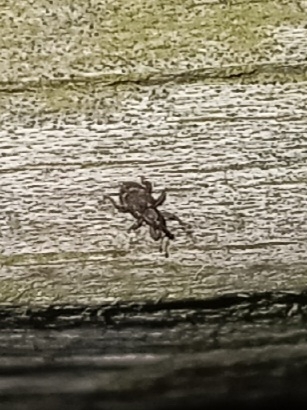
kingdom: Animalia
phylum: Arthropoda
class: Insecta
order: Coleoptera
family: Brachyceridae
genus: Tanysphyrus
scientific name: Tanysphyrus lemnae
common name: Duckweed weevil
